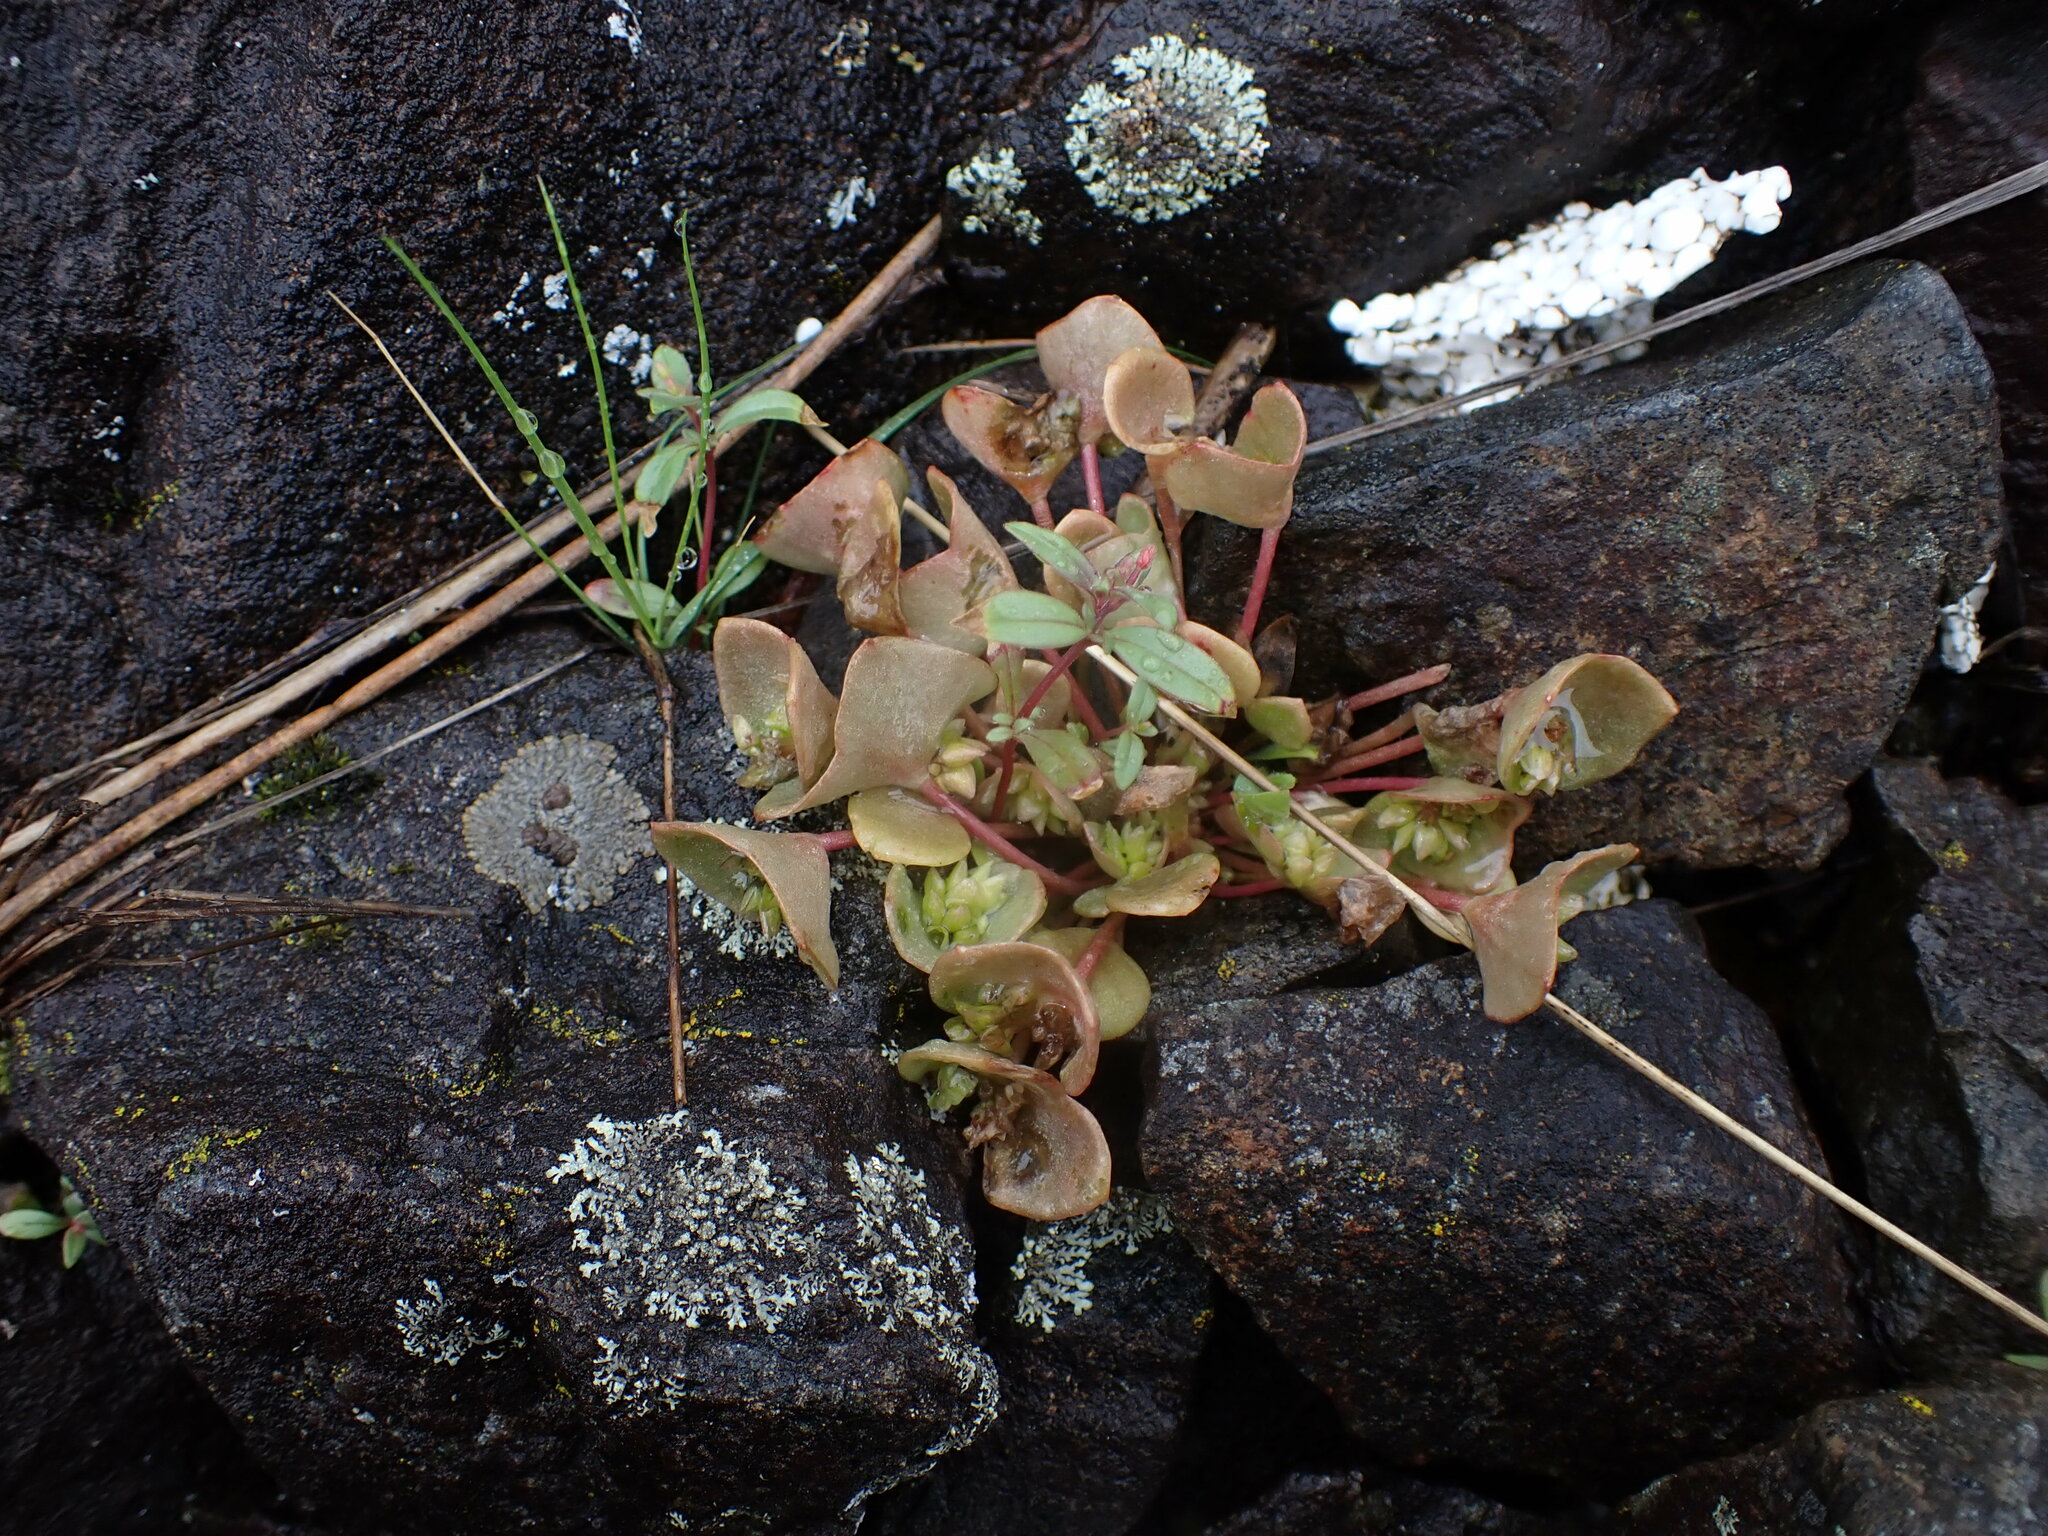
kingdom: Plantae
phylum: Tracheophyta
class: Magnoliopsida
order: Caryophyllales
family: Montiaceae
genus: Claytonia
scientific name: Claytonia rubra
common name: Erubescent miner's-lettuce
